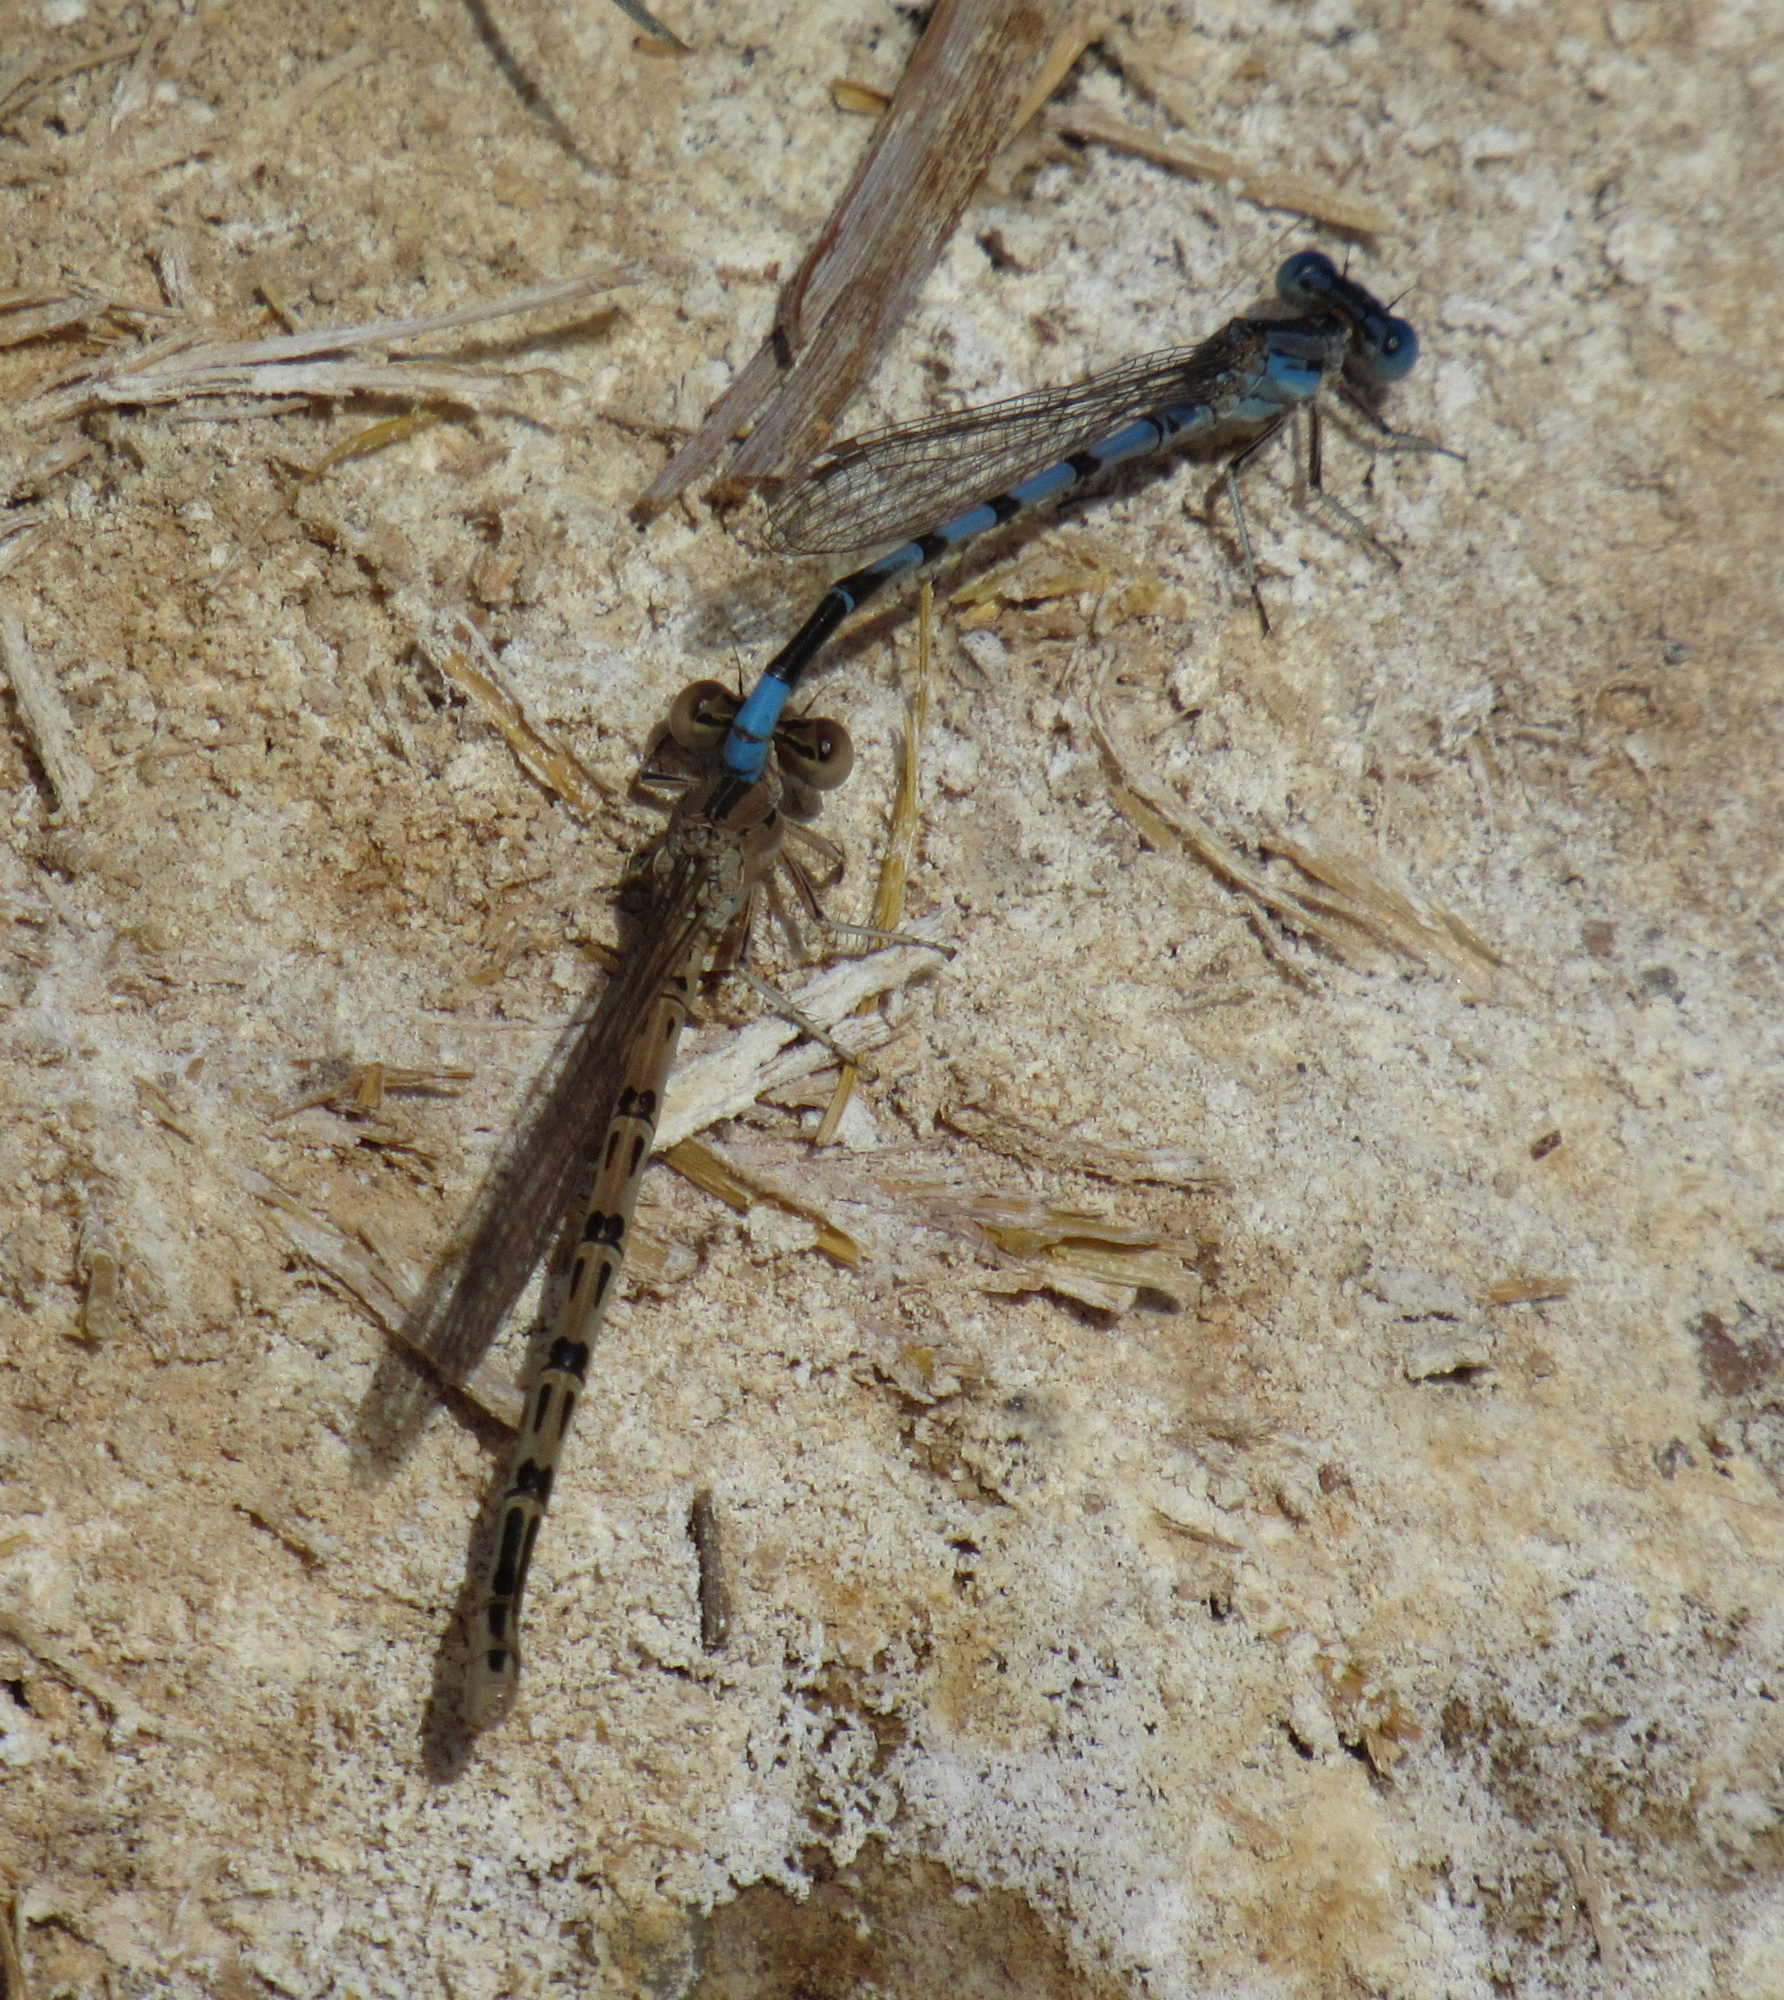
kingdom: Animalia
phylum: Arthropoda
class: Insecta
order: Odonata
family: Coenagrionidae
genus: Argia
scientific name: Argia nahuana
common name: Aztec dancer
